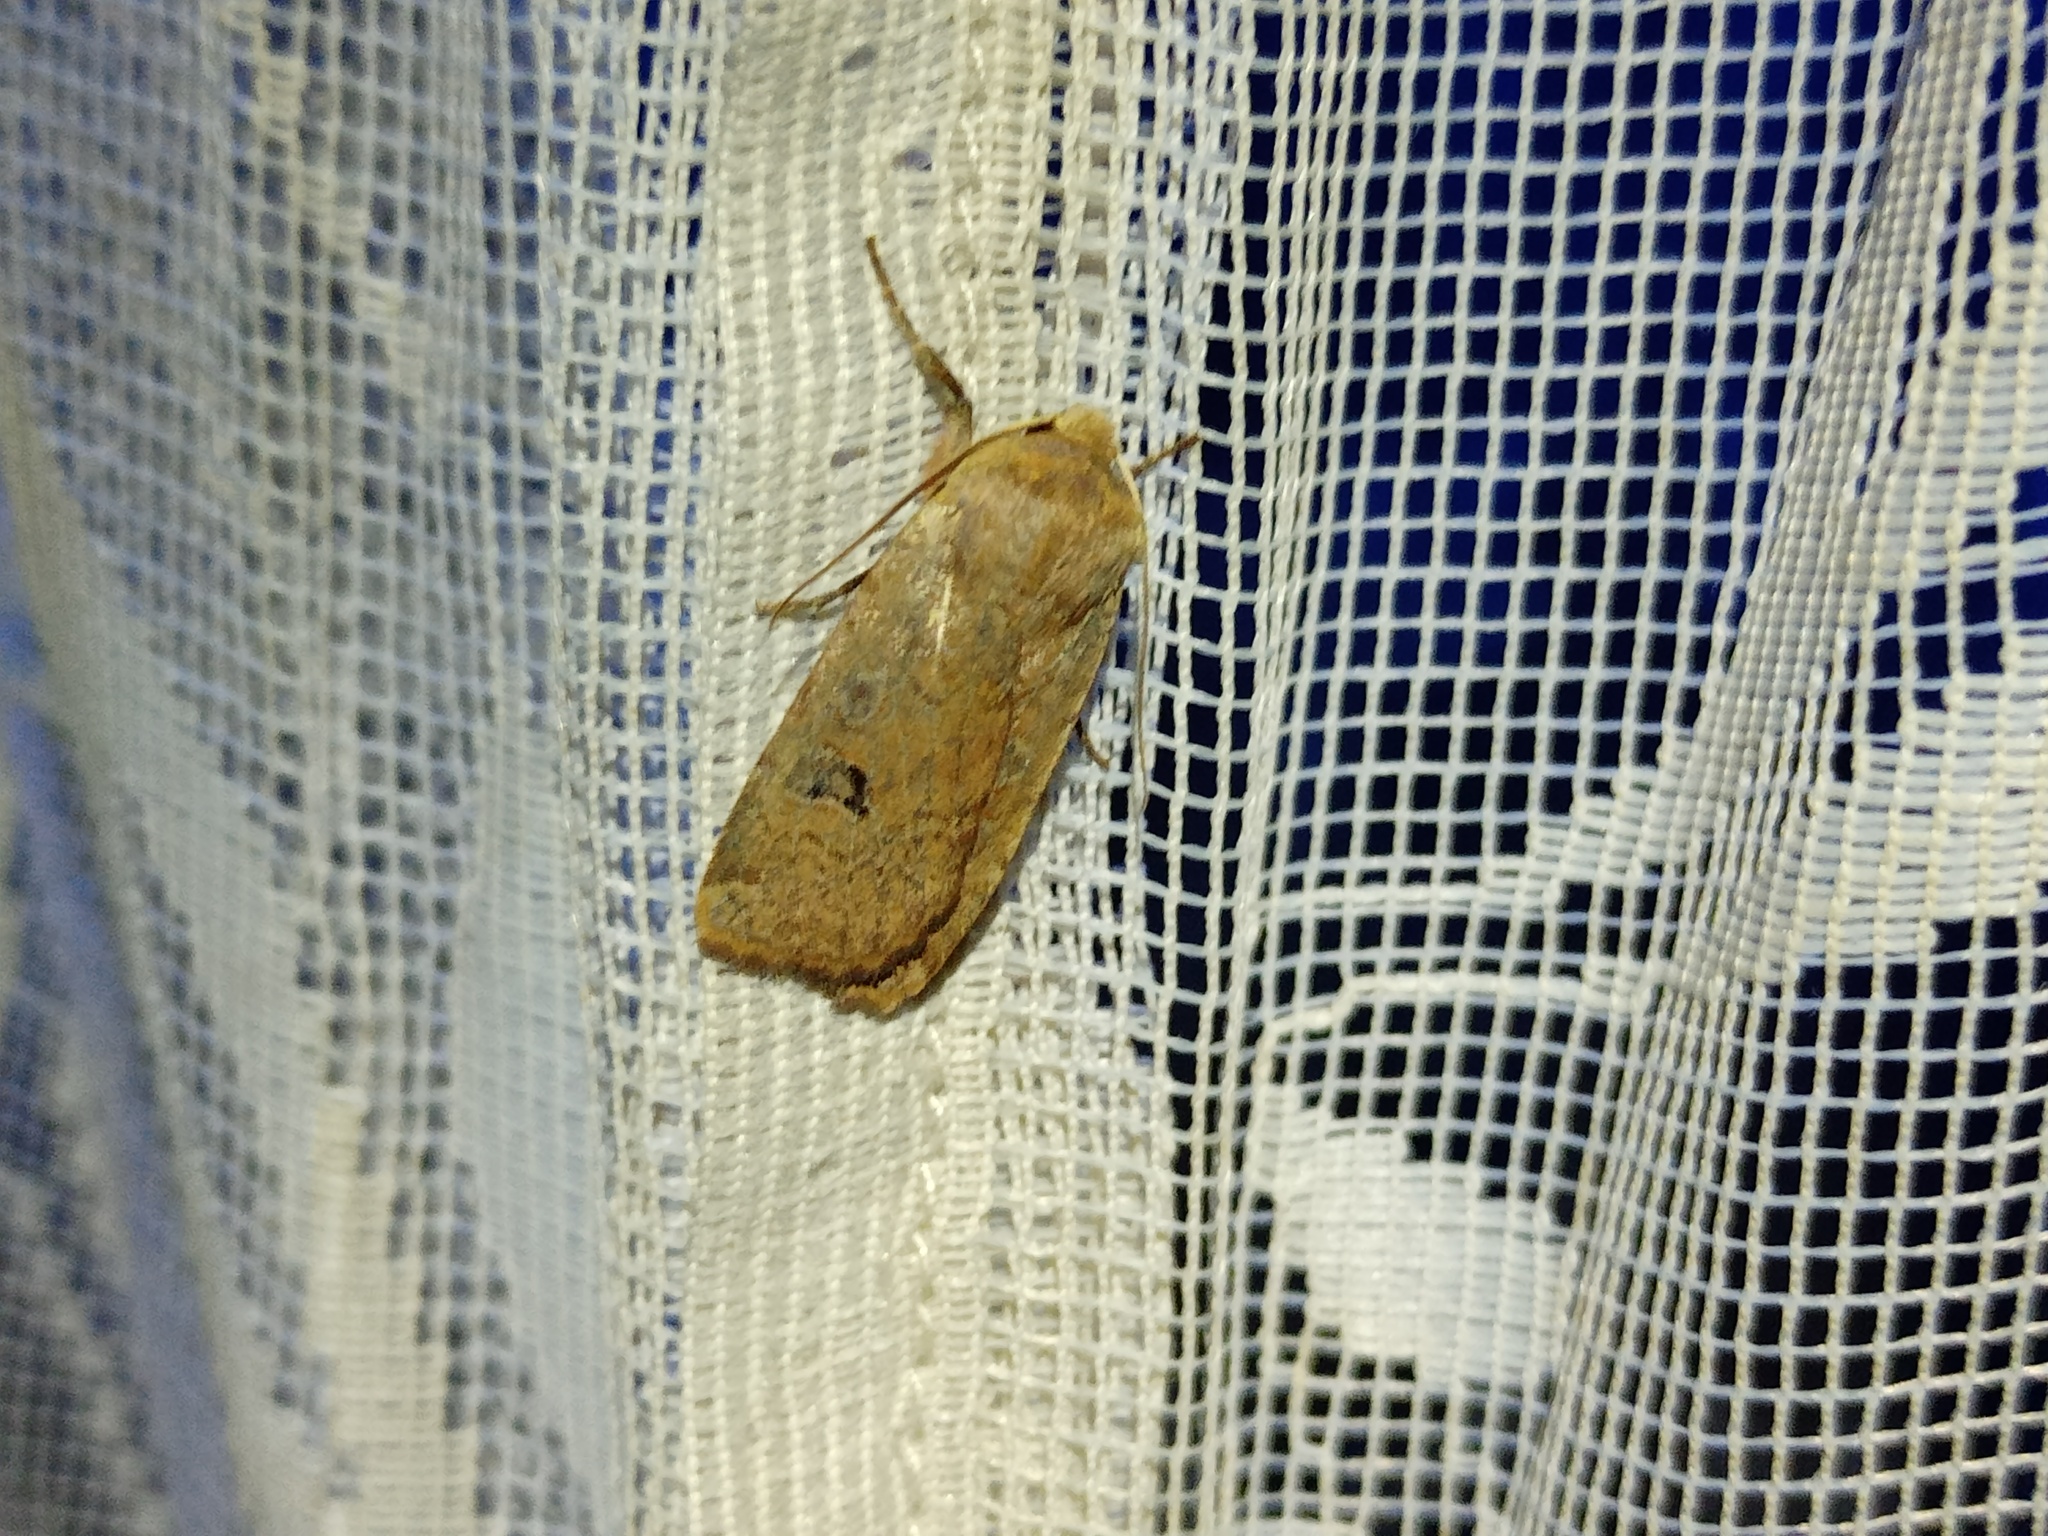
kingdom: Animalia
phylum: Arthropoda
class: Insecta
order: Lepidoptera
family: Noctuidae
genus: Conistra
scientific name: Conistra erythrocephala
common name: Red-headed chestnut
